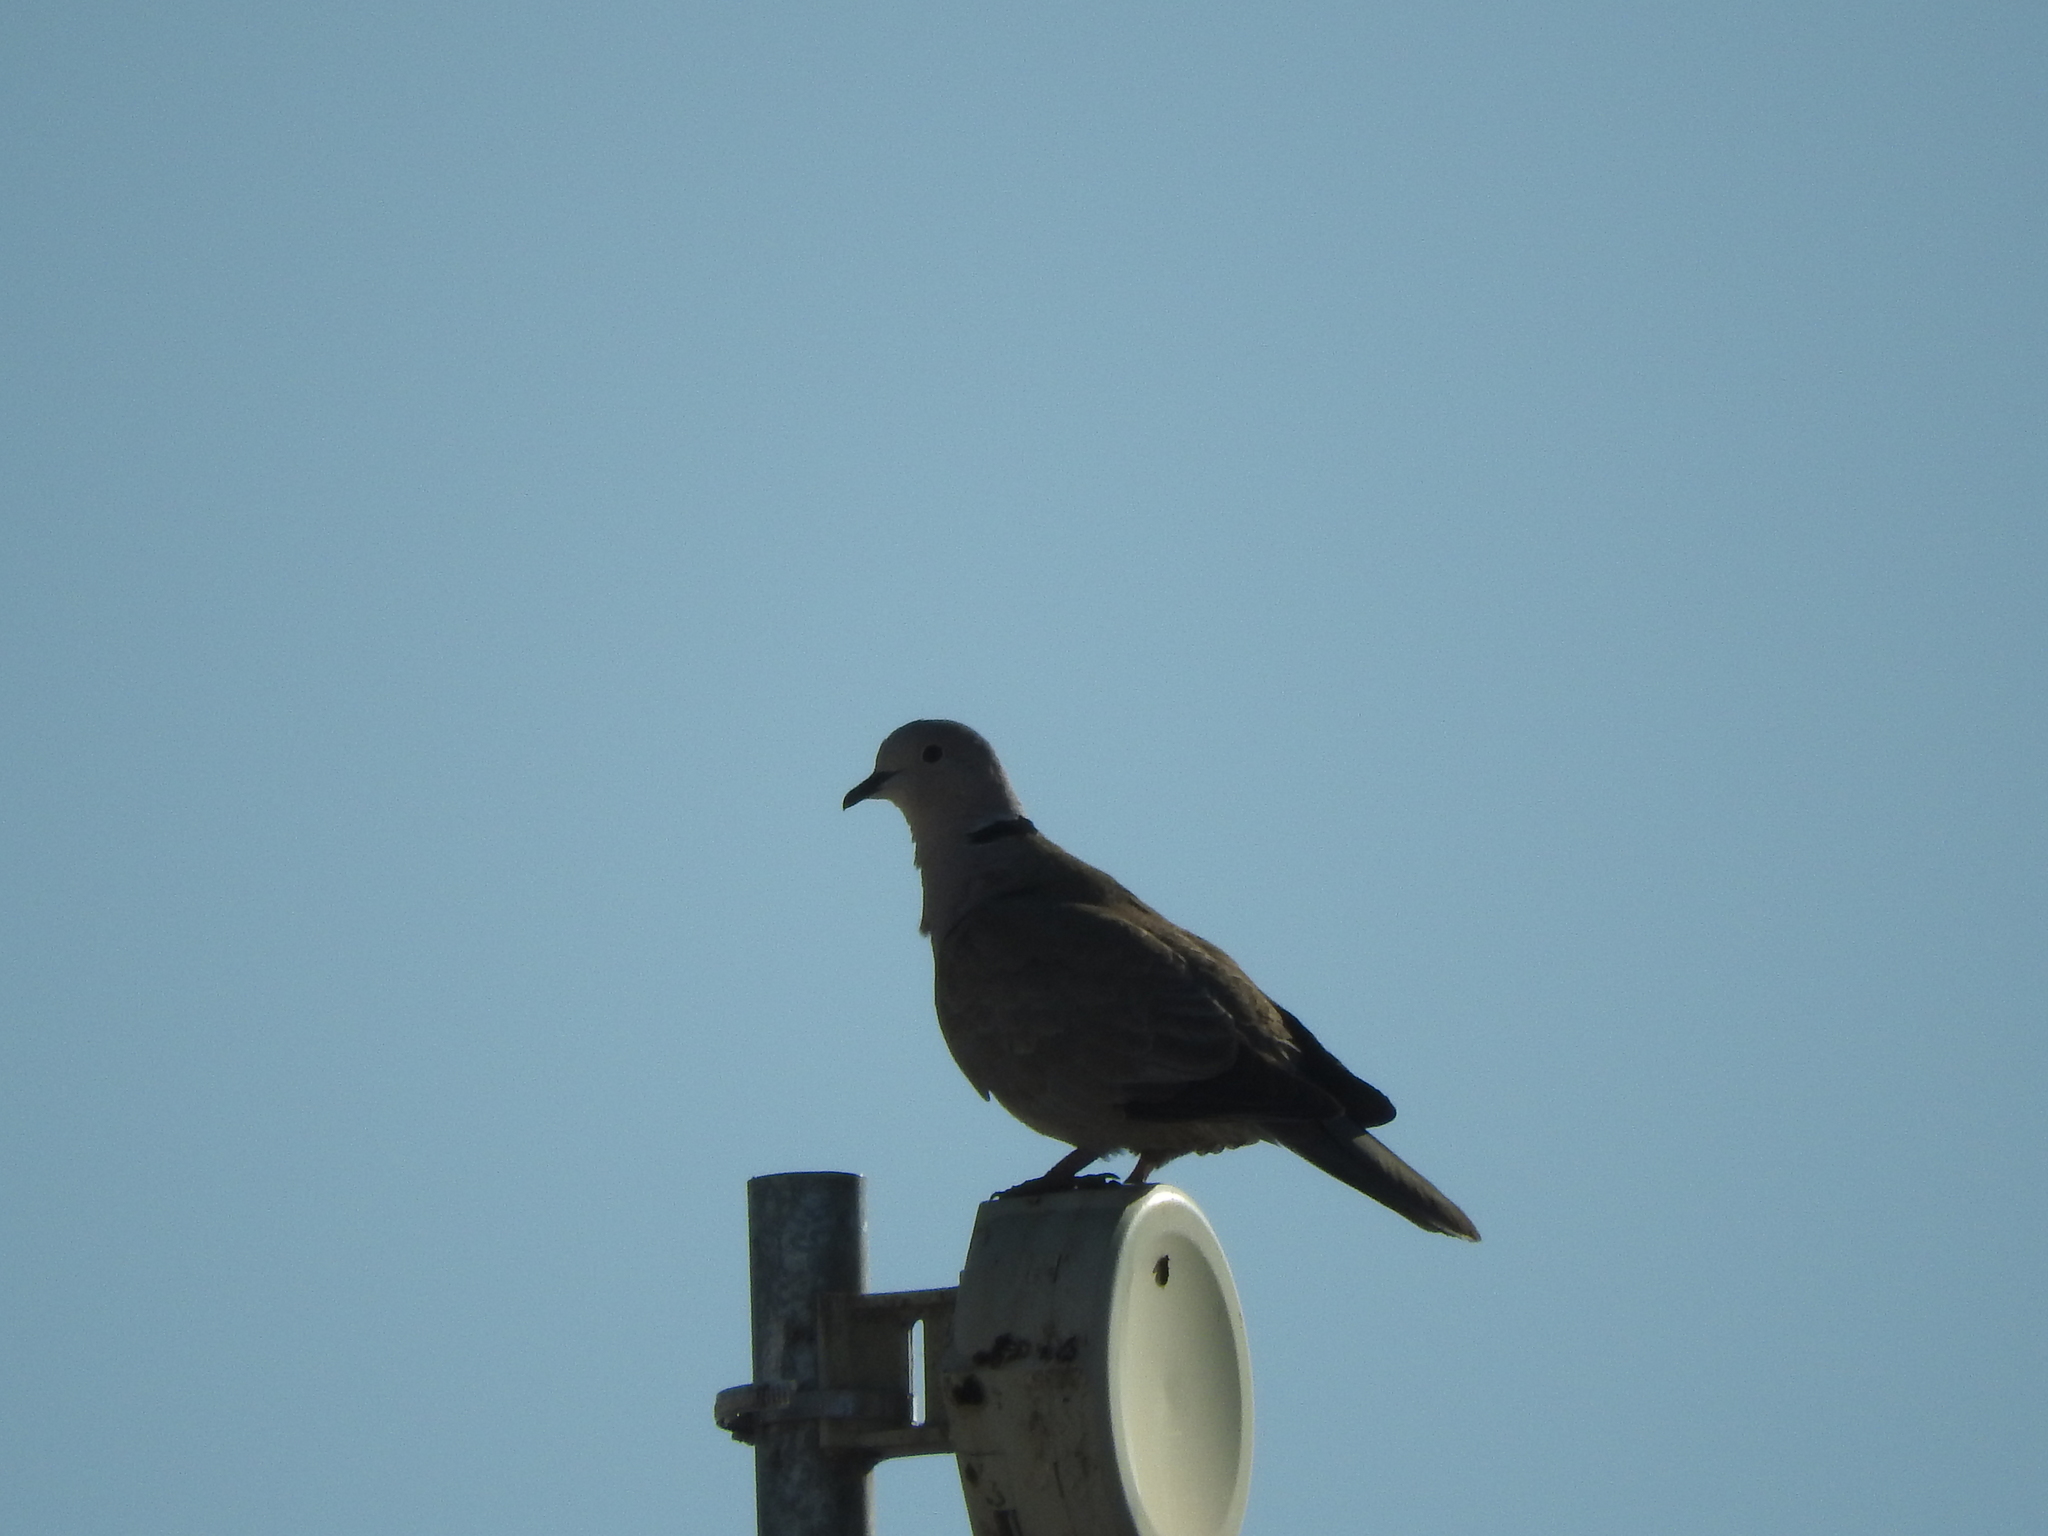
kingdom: Animalia
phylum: Chordata
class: Aves
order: Columbiformes
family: Columbidae
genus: Streptopelia
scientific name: Streptopelia decaocto
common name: Eurasian collared dove
